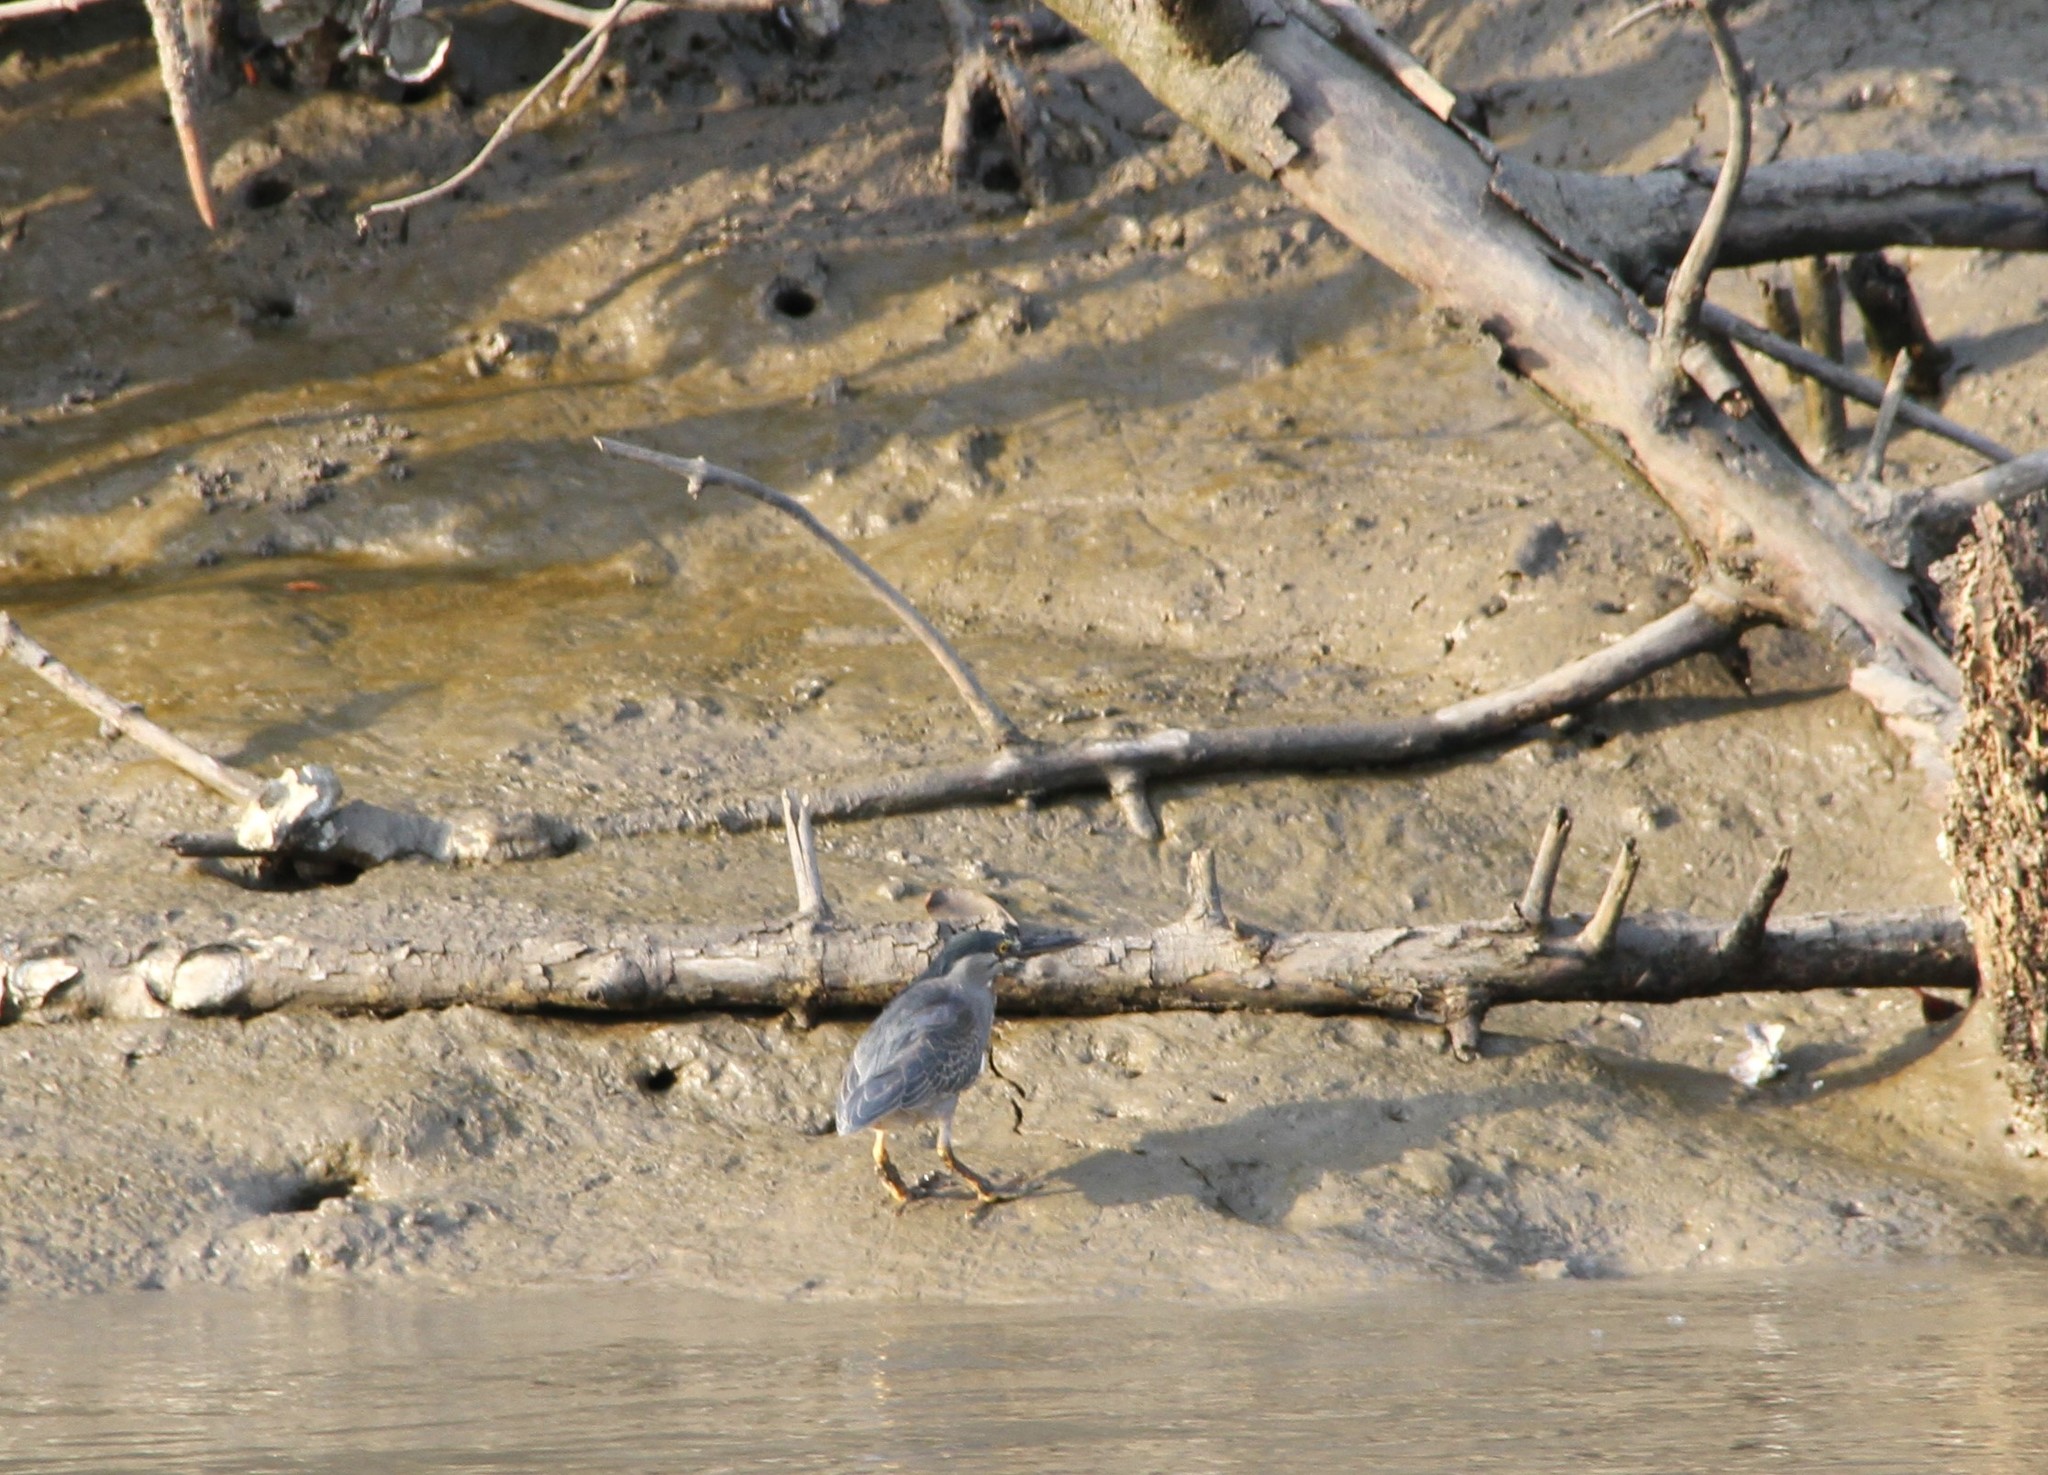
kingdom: Animalia
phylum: Chordata
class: Aves
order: Pelecaniformes
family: Ardeidae
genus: Butorides
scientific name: Butorides striata
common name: Striated heron
